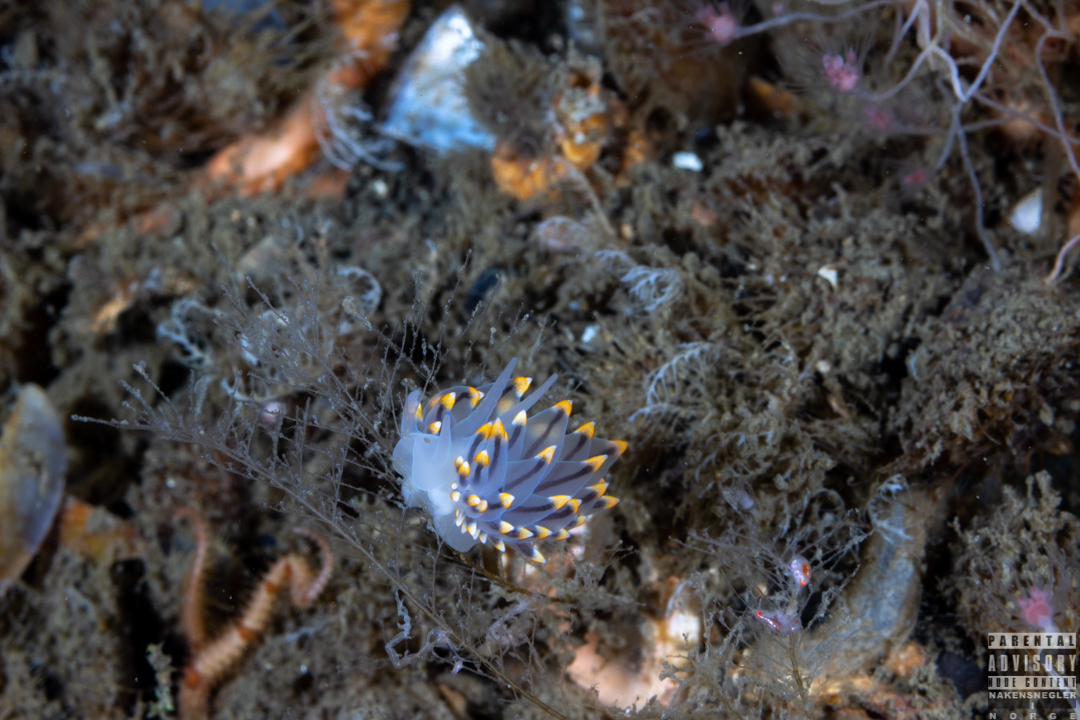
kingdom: Animalia
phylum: Mollusca
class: Gastropoda
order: Nudibranchia
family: Eubranchidae
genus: Eubranchus
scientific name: Eubranchus tricolor
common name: Painted balloon aeolis
